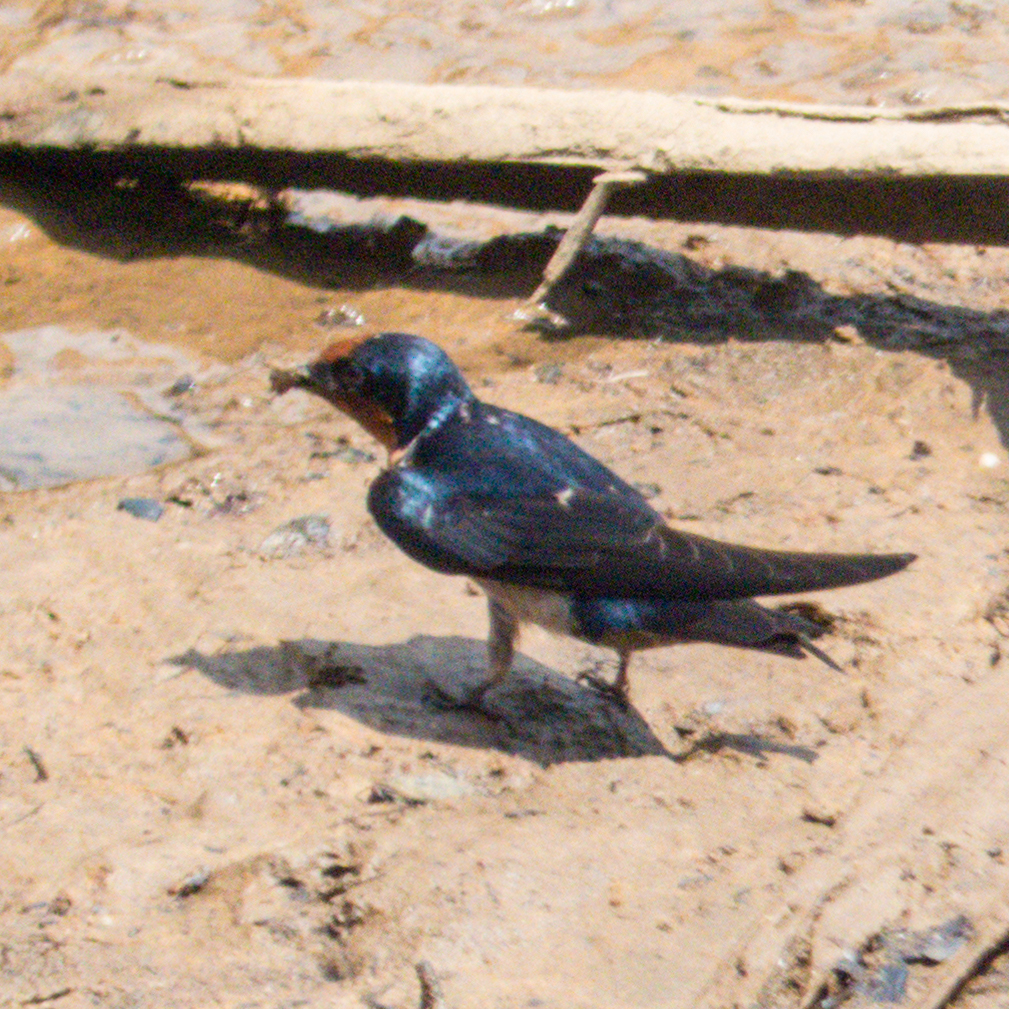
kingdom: Animalia
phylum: Chordata
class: Aves
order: Passeriformes
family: Hirundinidae
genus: Hirundo
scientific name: Hirundo tahitica
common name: Pacific swallow
